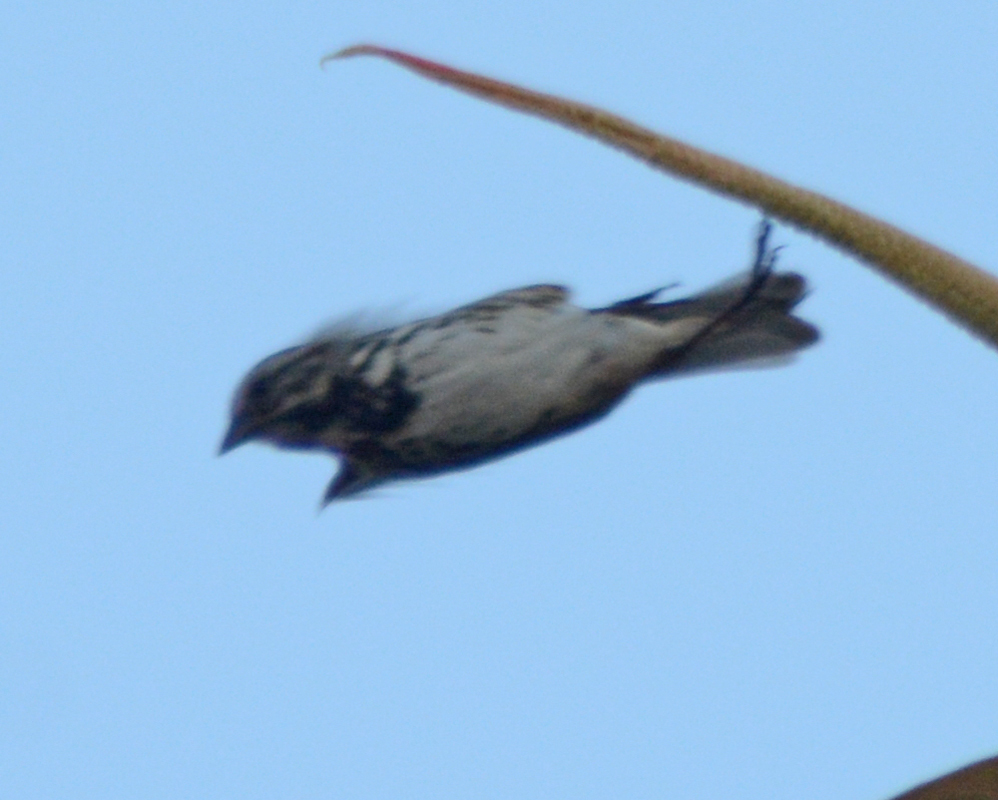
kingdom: Animalia
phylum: Chordata
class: Aves
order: Passeriformes
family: Passerellidae
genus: Melospiza
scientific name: Melospiza melodia
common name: Song sparrow
